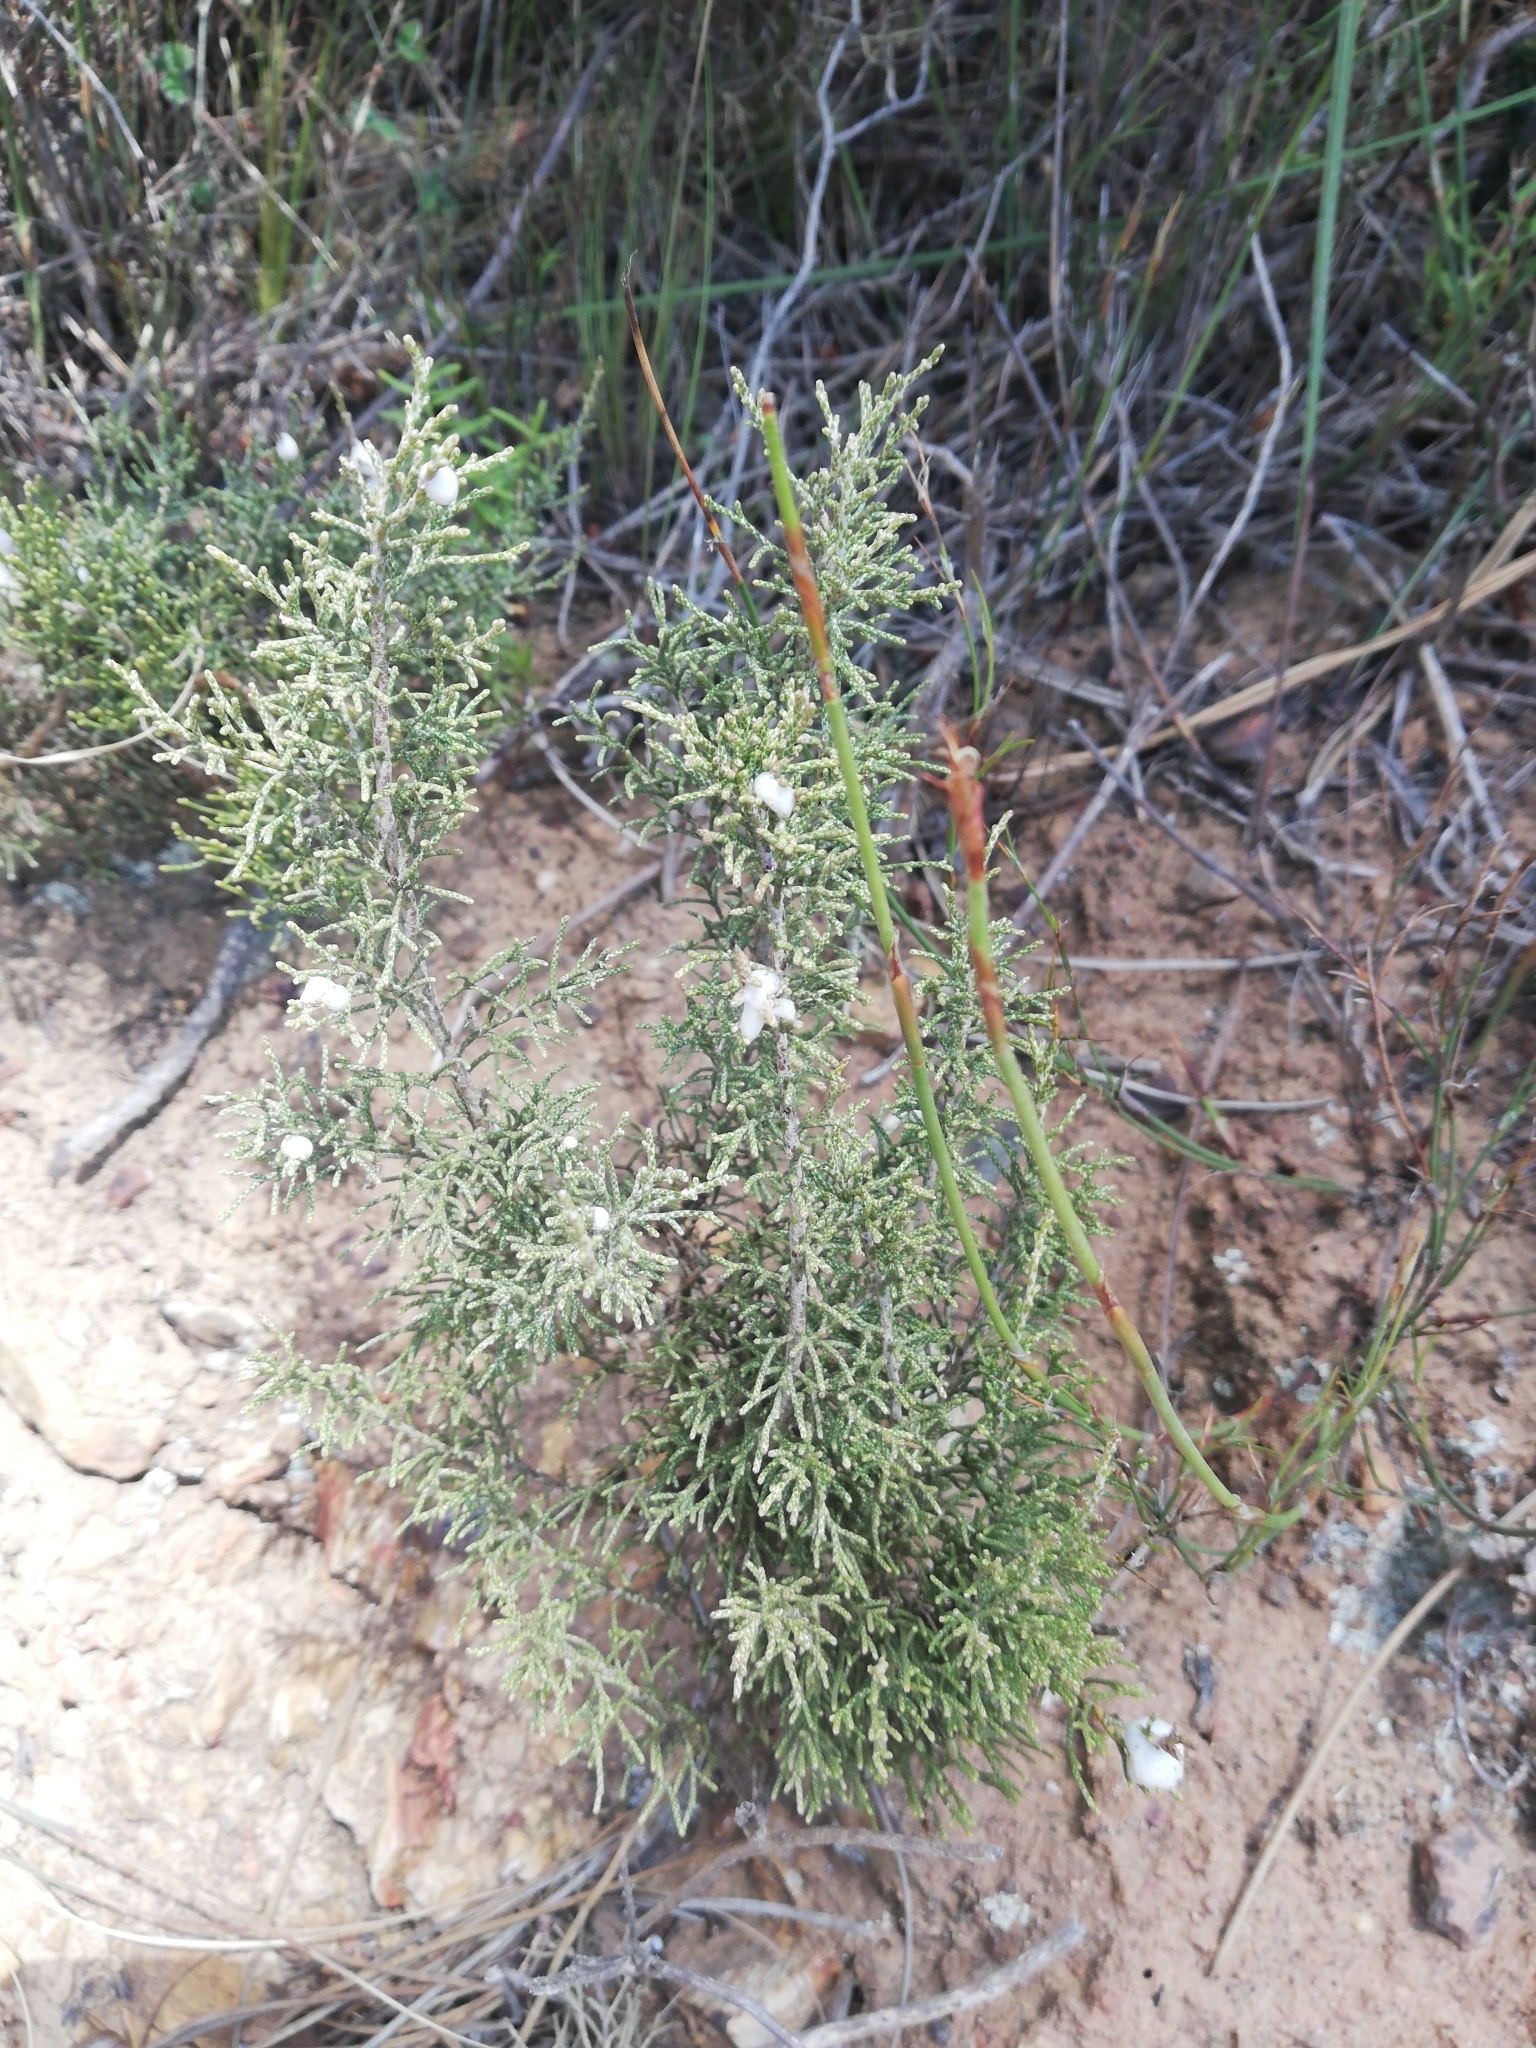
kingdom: Plantae
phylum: Tracheophyta
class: Magnoliopsida
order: Asterales
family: Asteraceae
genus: Dicerothamnus
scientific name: Dicerothamnus rhinocerotis
